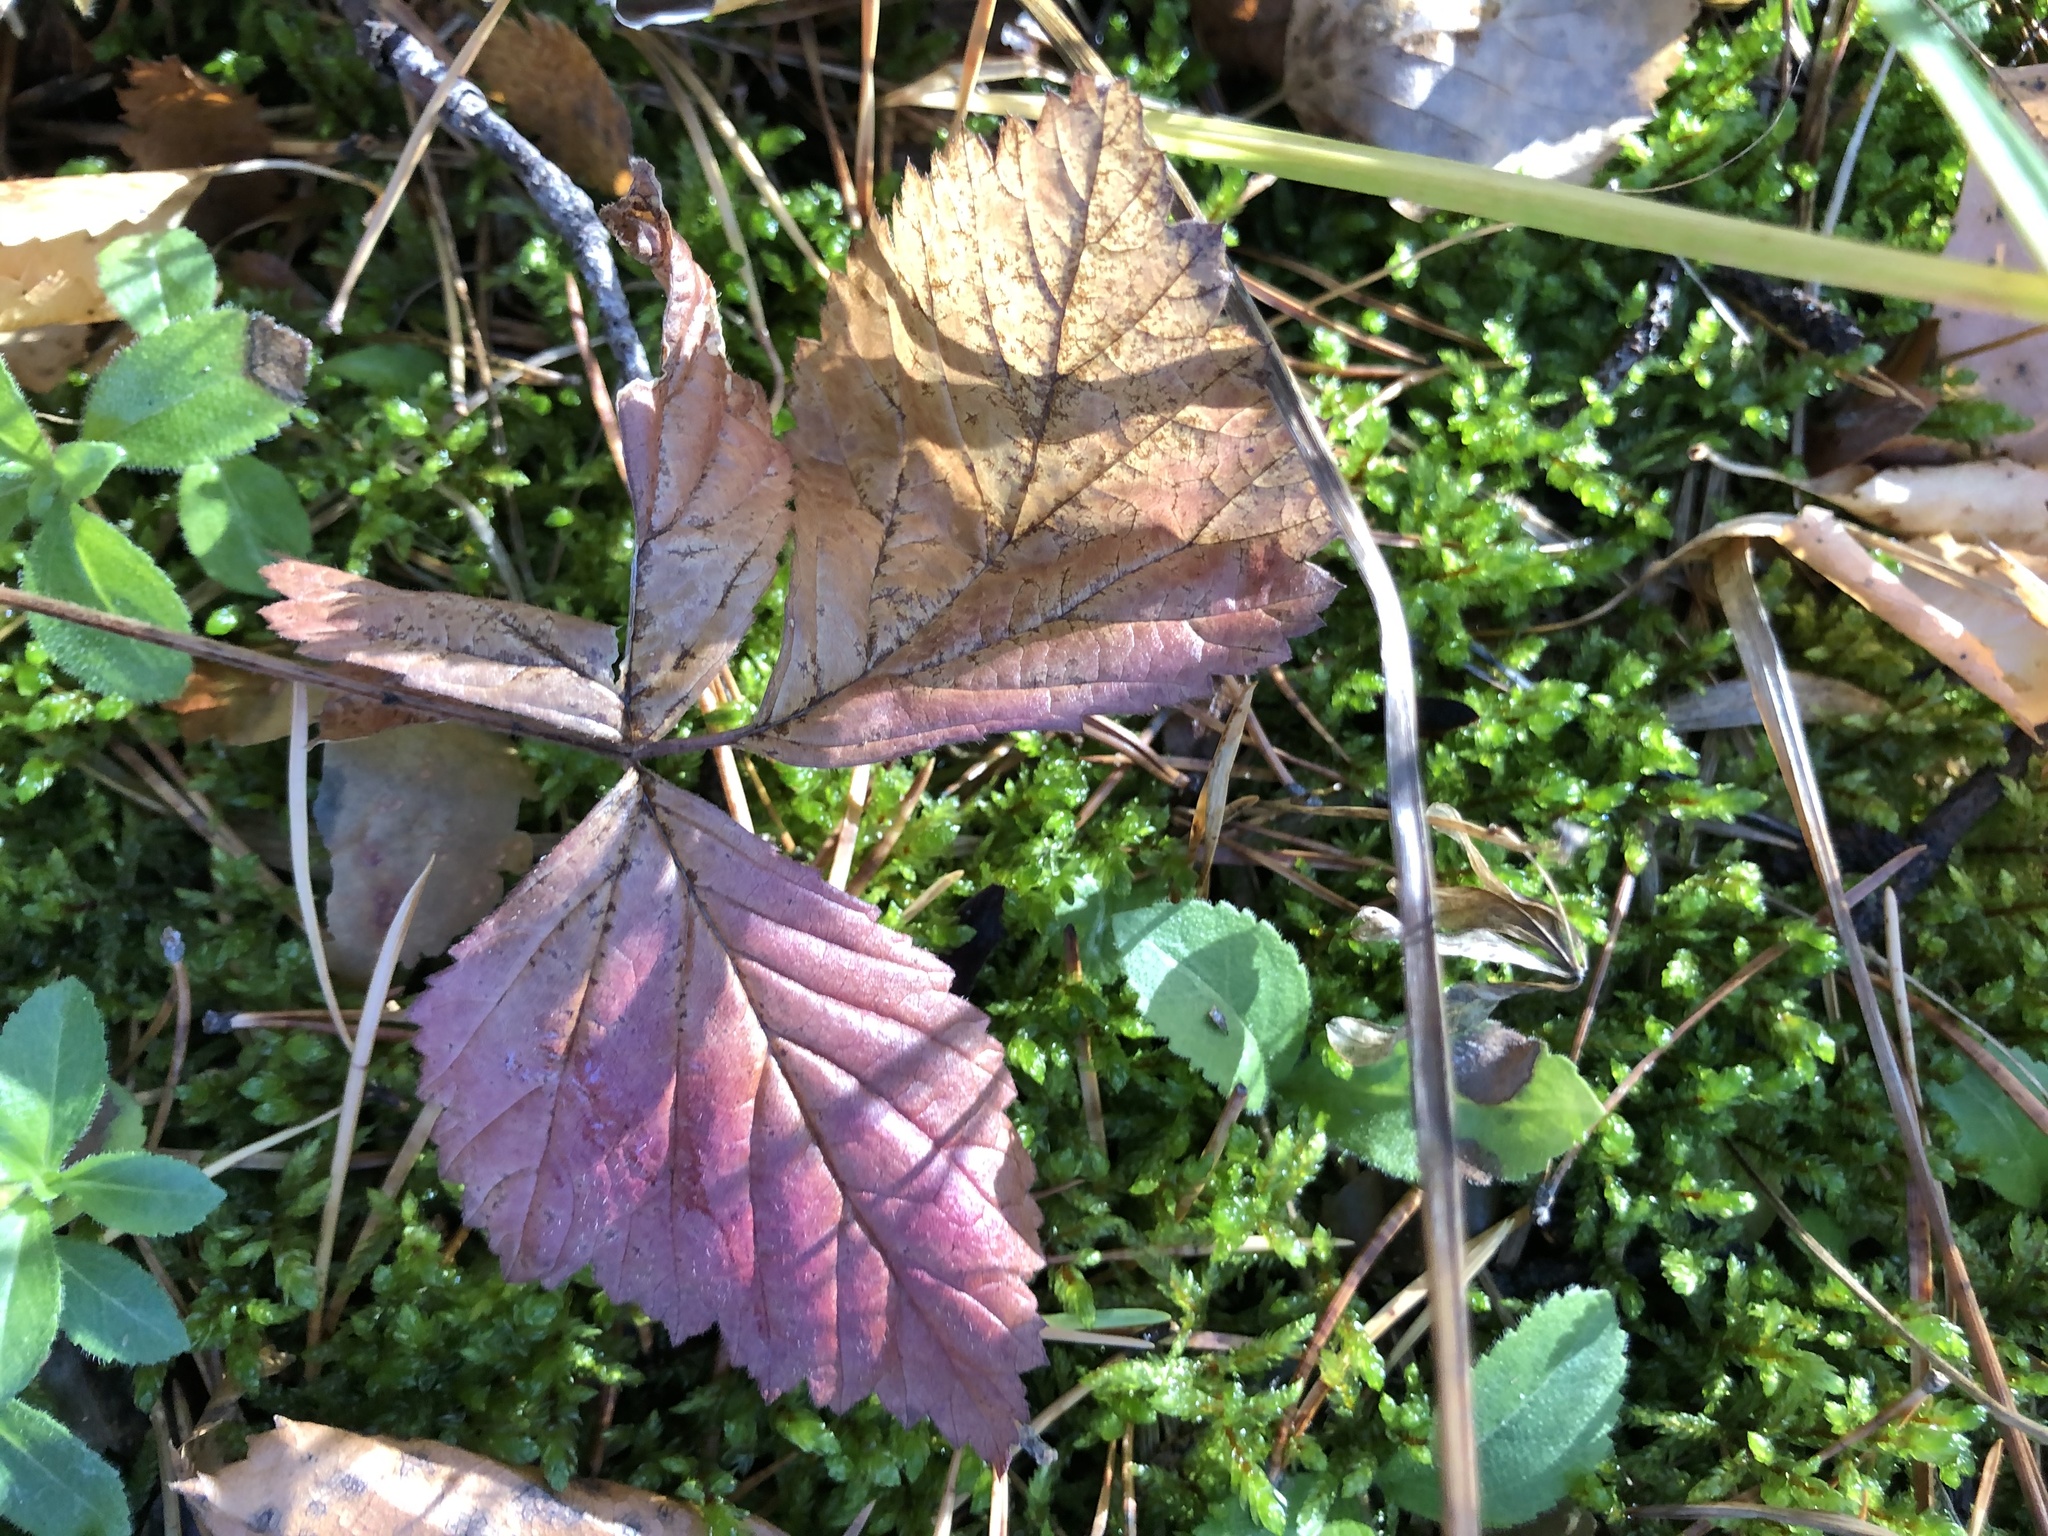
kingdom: Plantae
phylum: Tracheophyta
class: Magnoliopsida
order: Rosales
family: Rosaceae
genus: Rubus
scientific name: Rubus saxatilis
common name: Stone bramble
